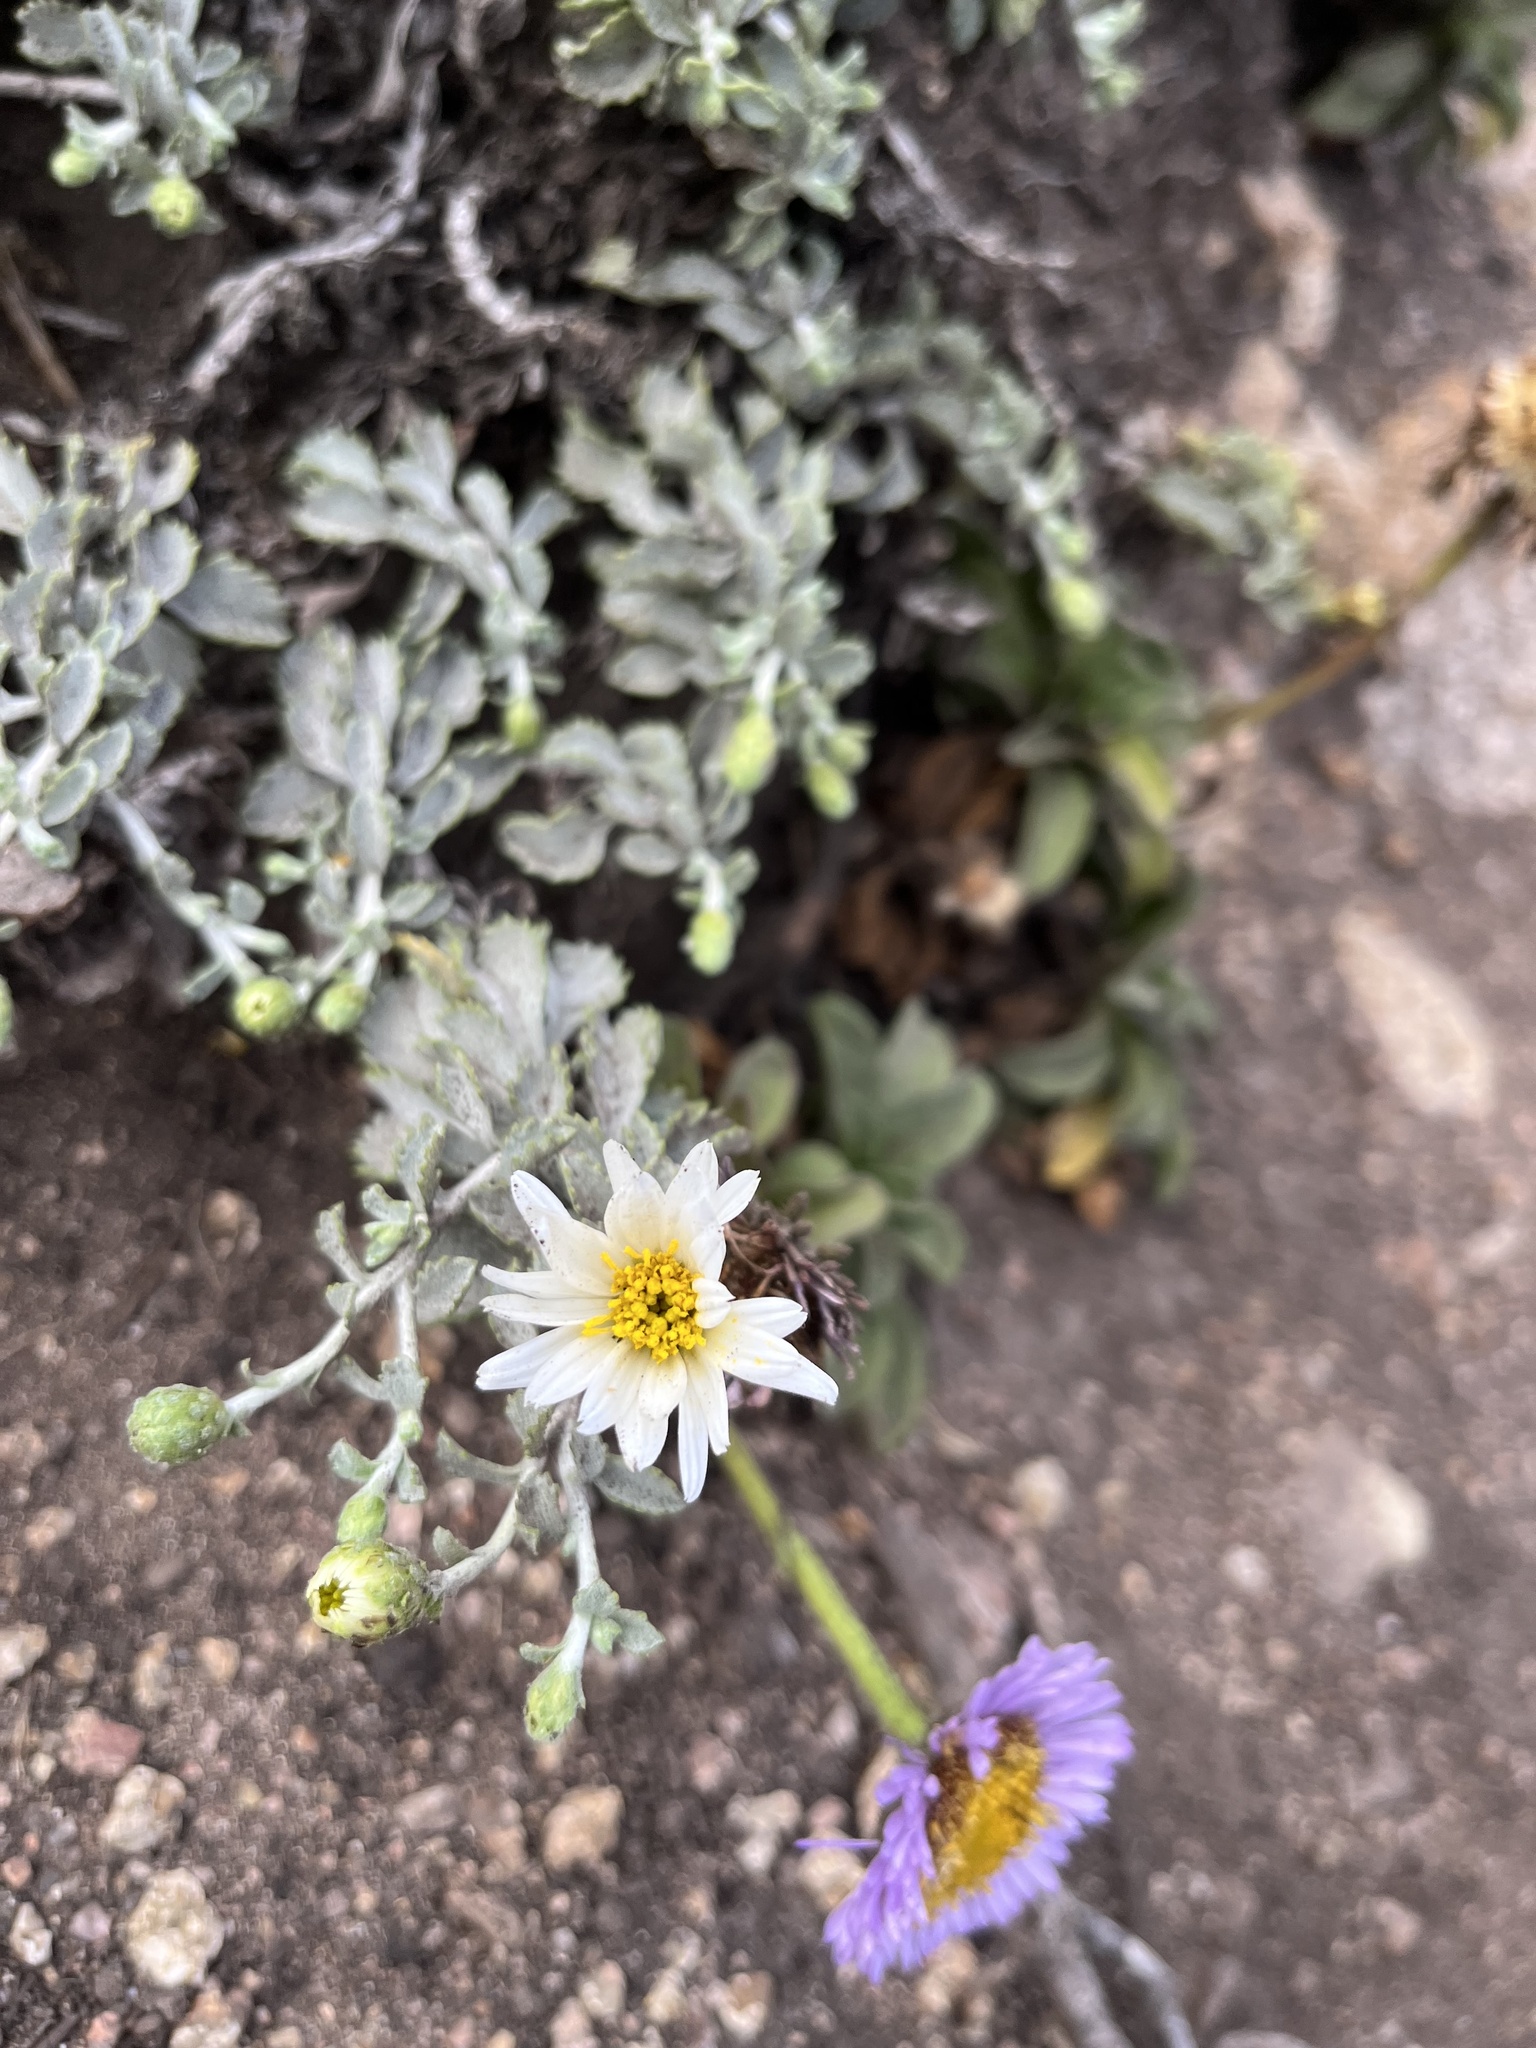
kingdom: Plantae
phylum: Tracheophyta
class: Magnoliopsida
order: Asterales
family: Asteraceae
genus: Corethrogyne
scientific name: Corethrogyne filaginifolia
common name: Sand-aster
